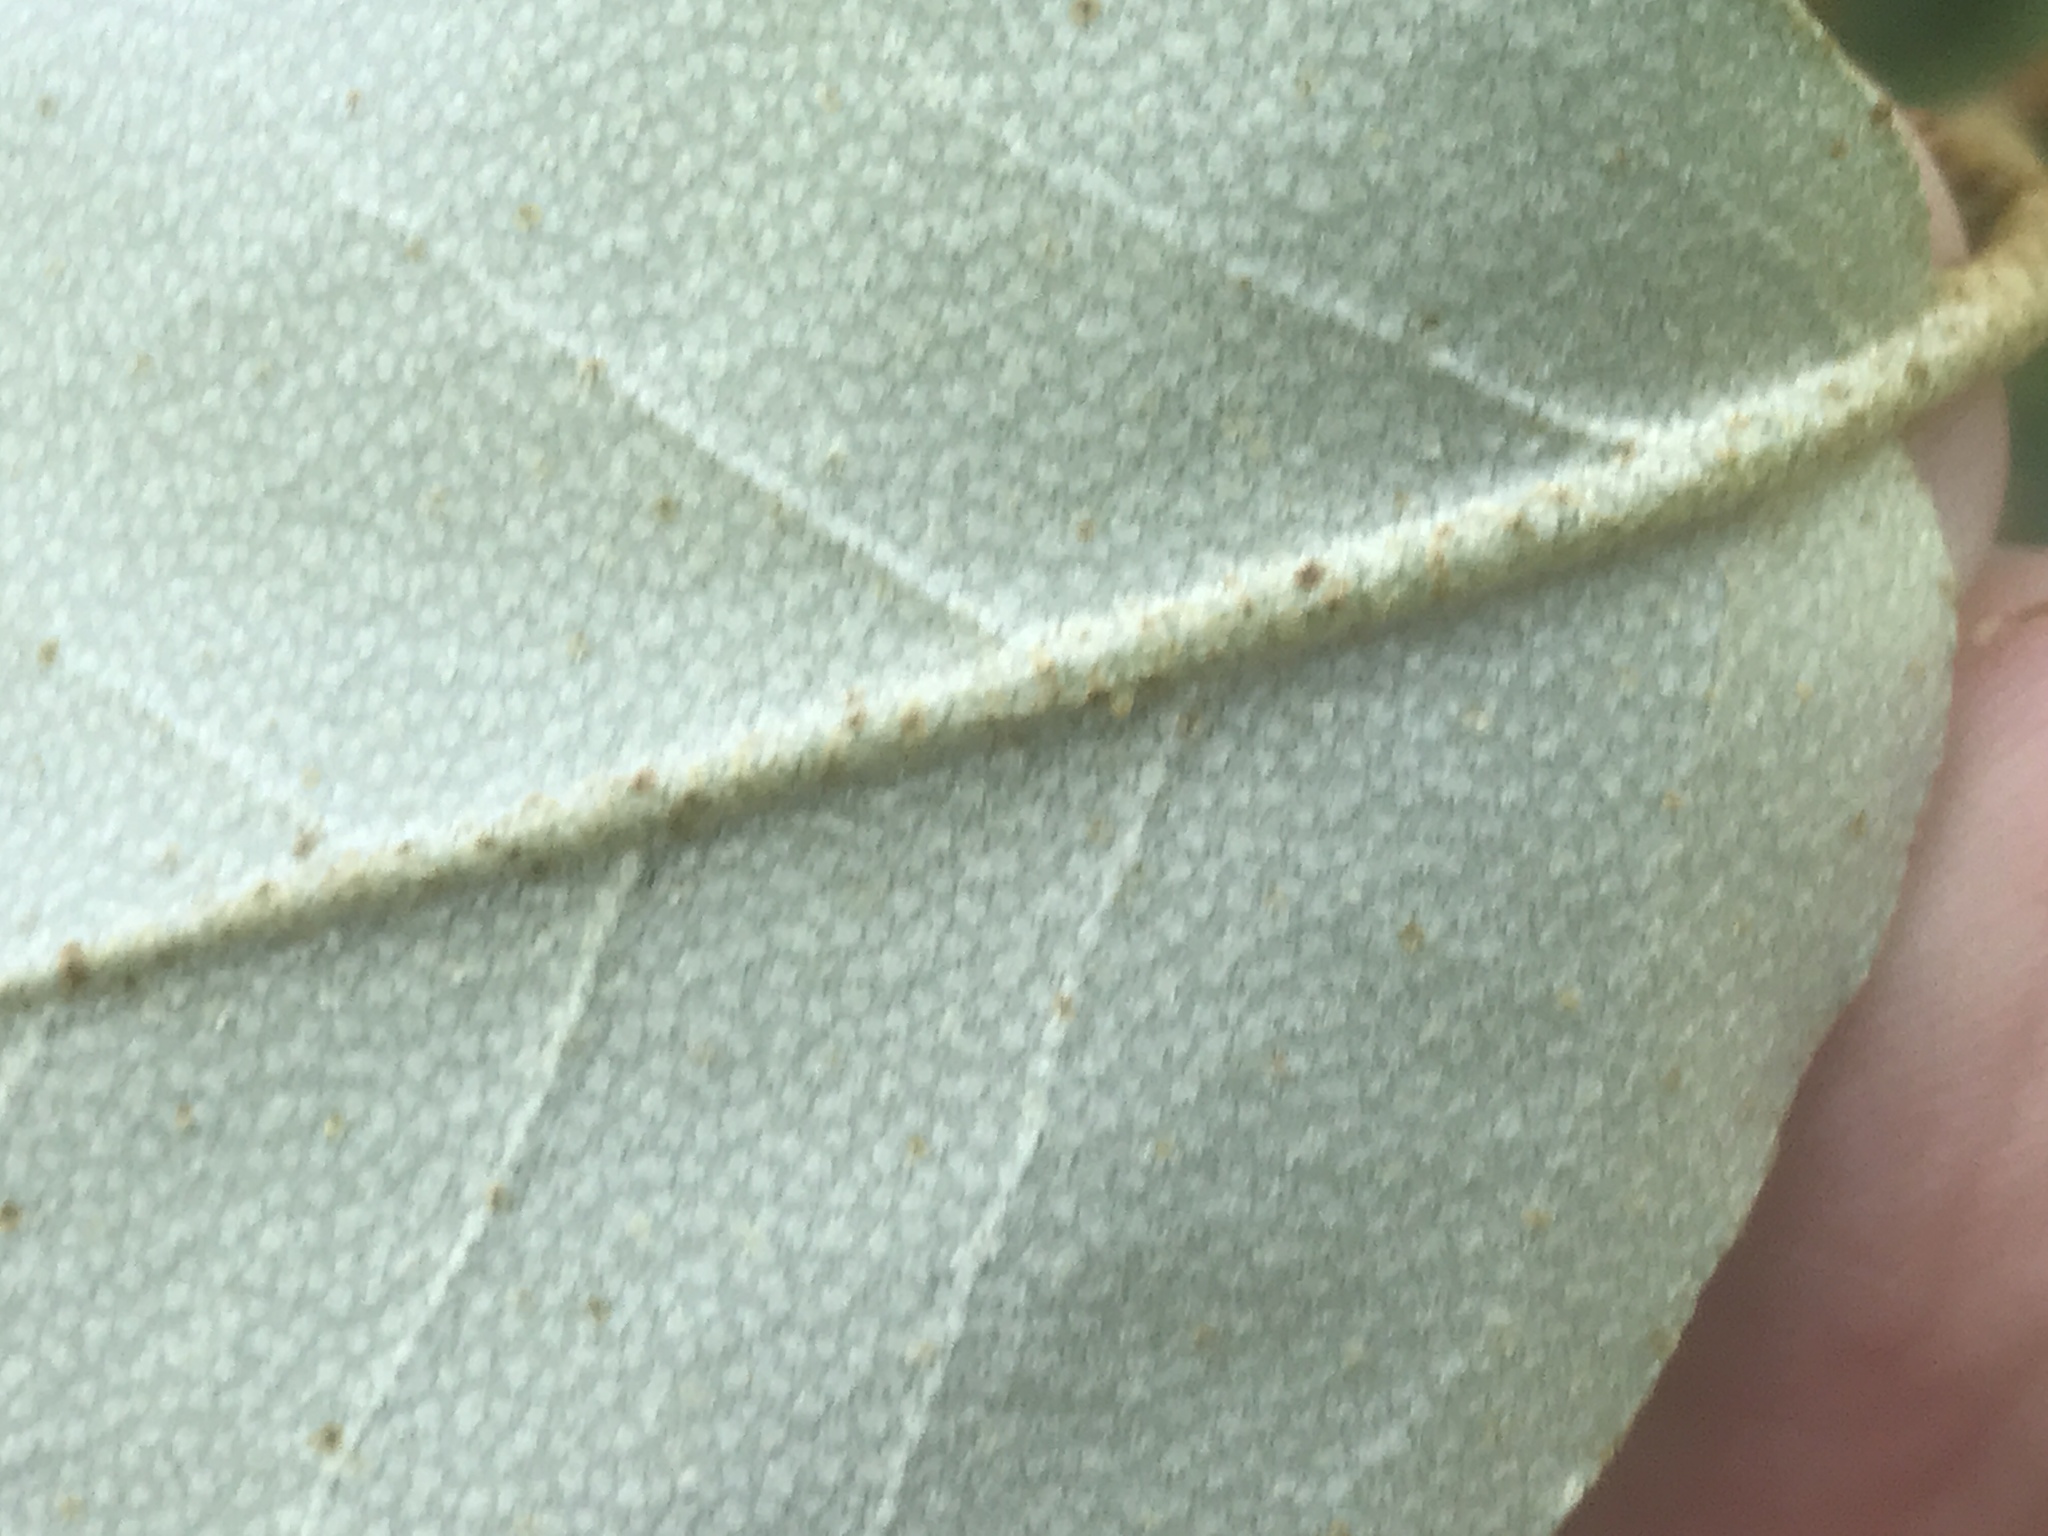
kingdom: Plantae
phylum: Tracheophyta
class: Magnoliopsida
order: Rosales
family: Elaeagnaceae
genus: Elaeagnus
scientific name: Elaeagnus pungens
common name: Spiny oleaster
